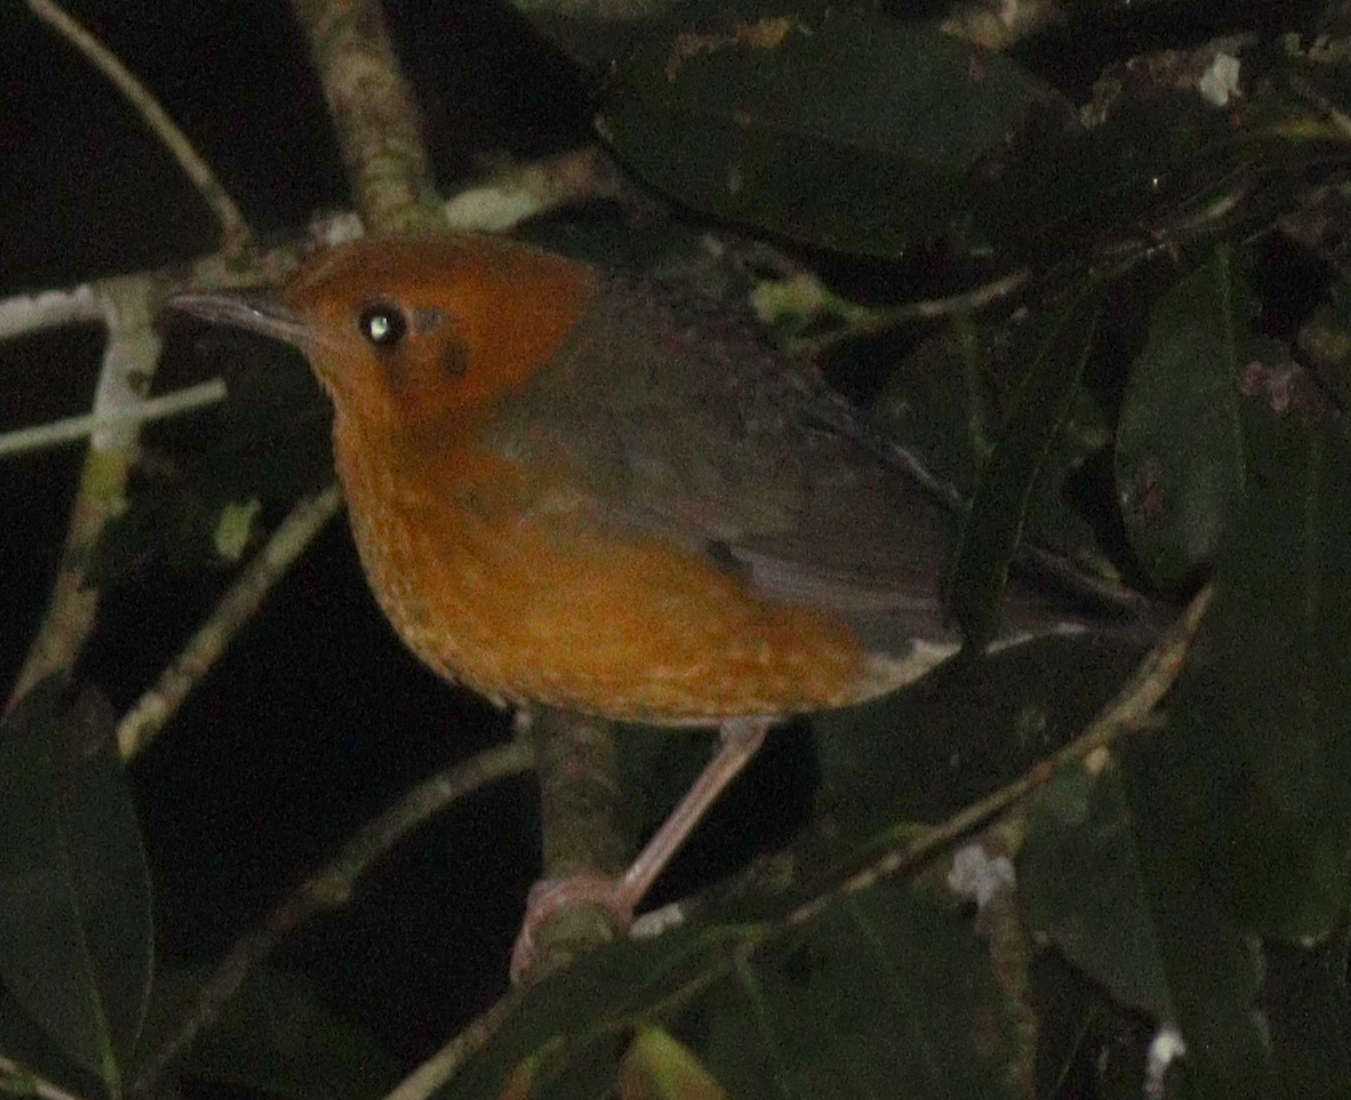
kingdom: Animalia
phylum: Chordata
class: Aves
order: Passeriformes
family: Turdidae
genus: Geokichla
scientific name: Geokichla citrina
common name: Orange-headed thrush
